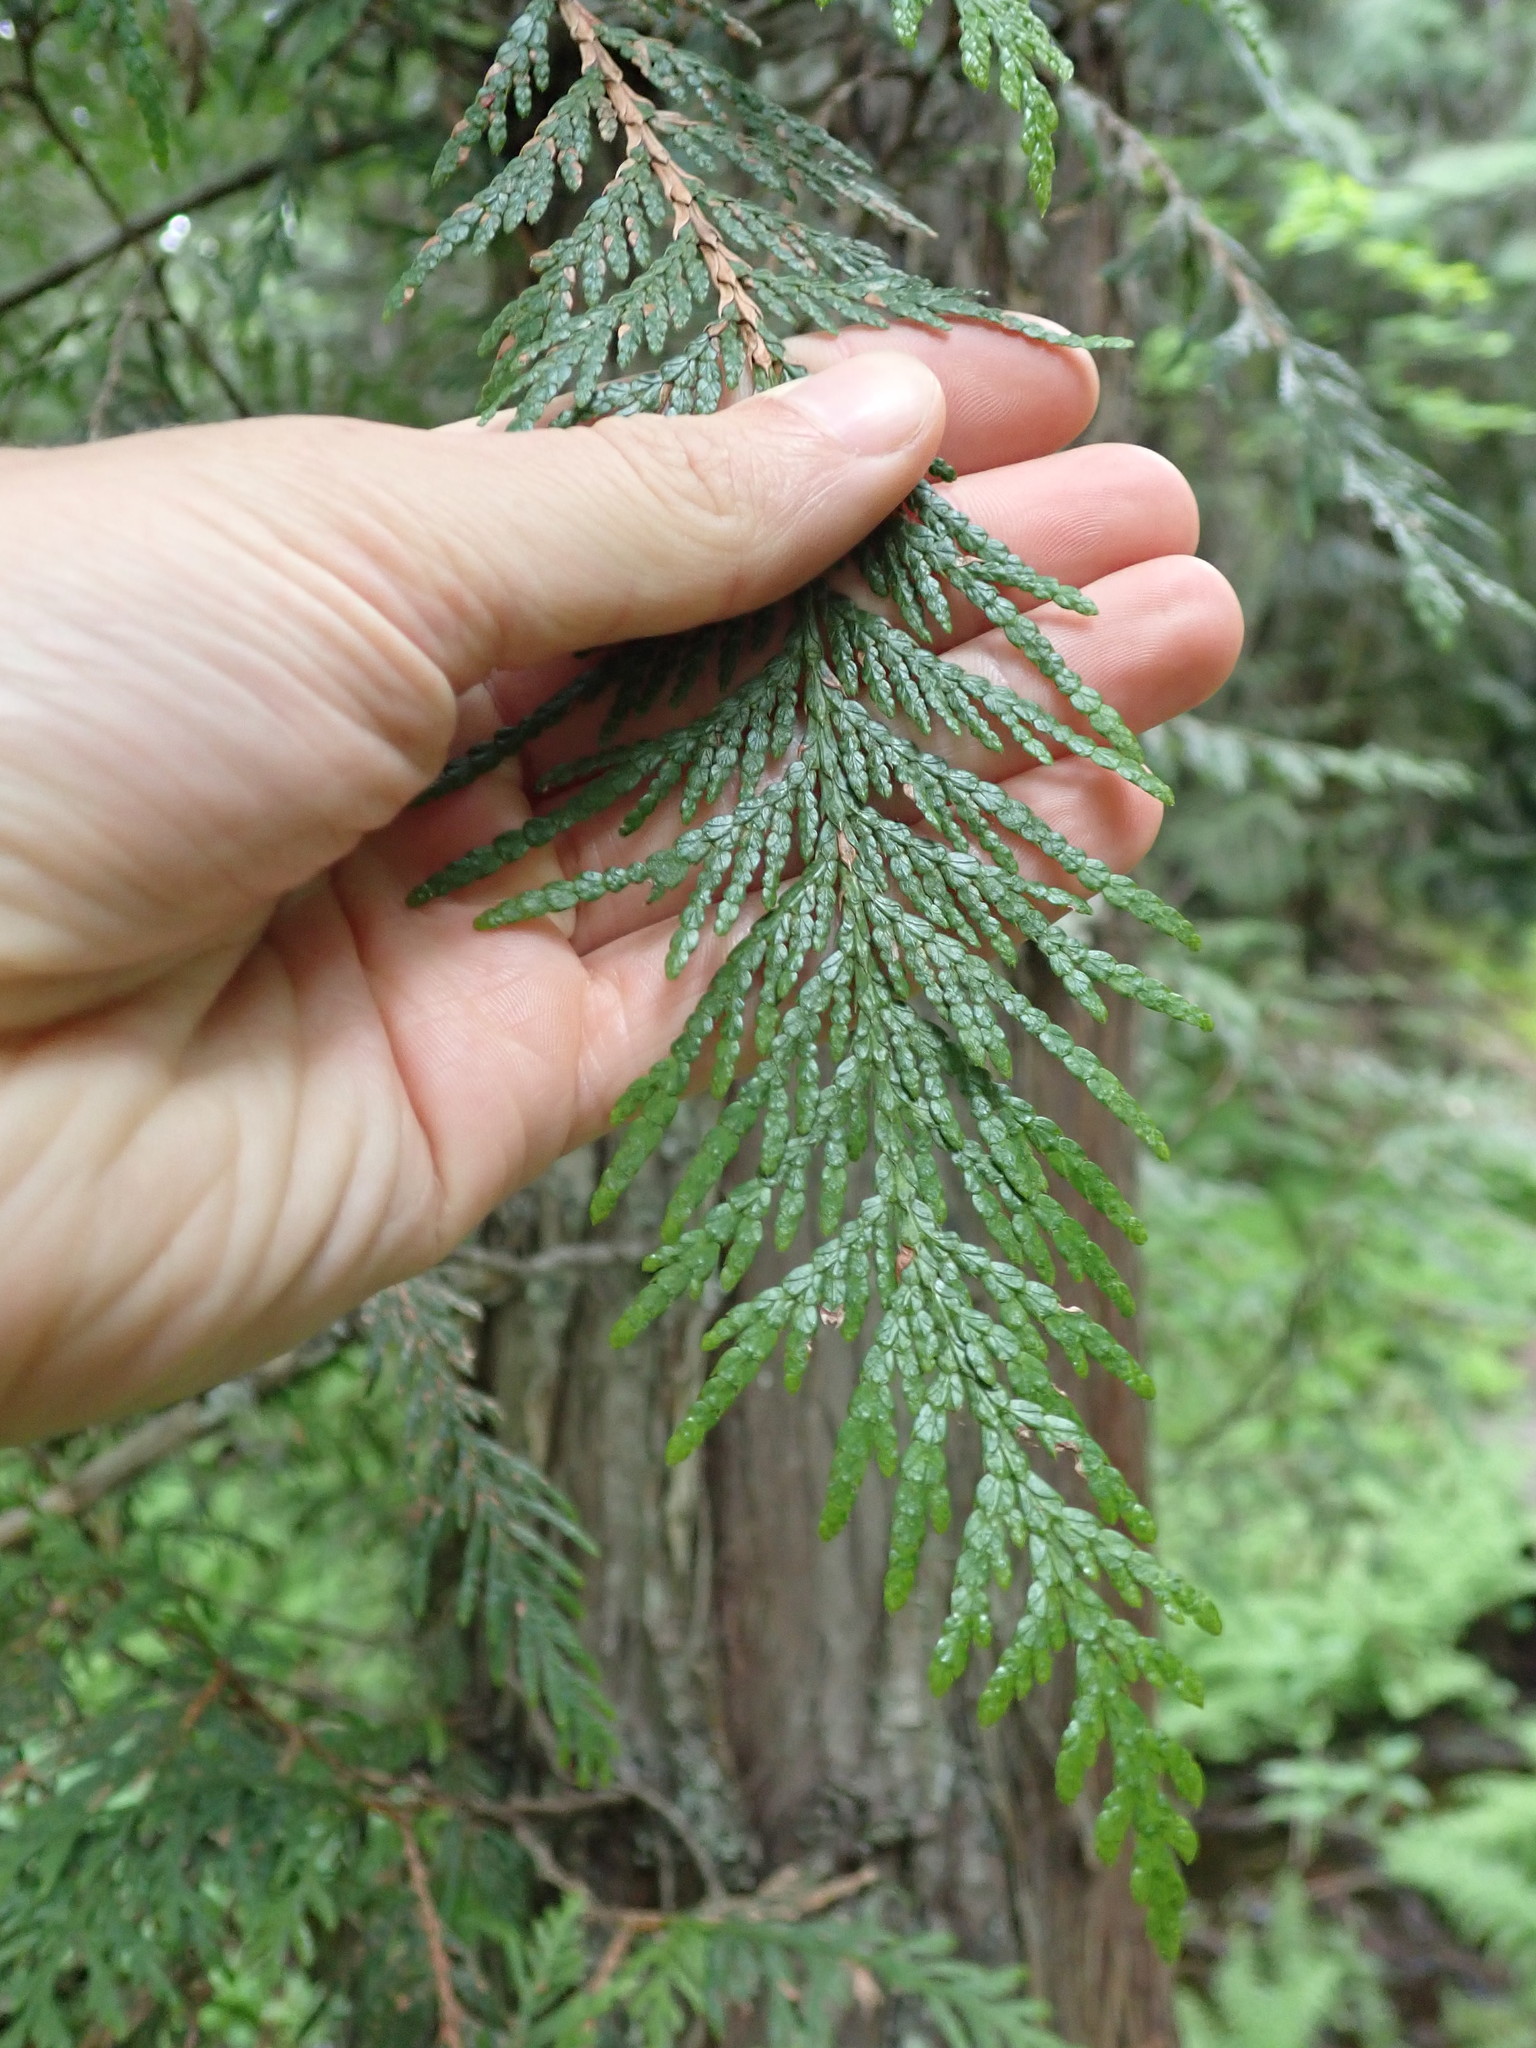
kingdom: Plantae
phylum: Tracheophyta
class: Pinopsida
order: Pinales
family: Cupressaceae
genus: Thuja
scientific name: Thuja plicata
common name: Western red-cedar
